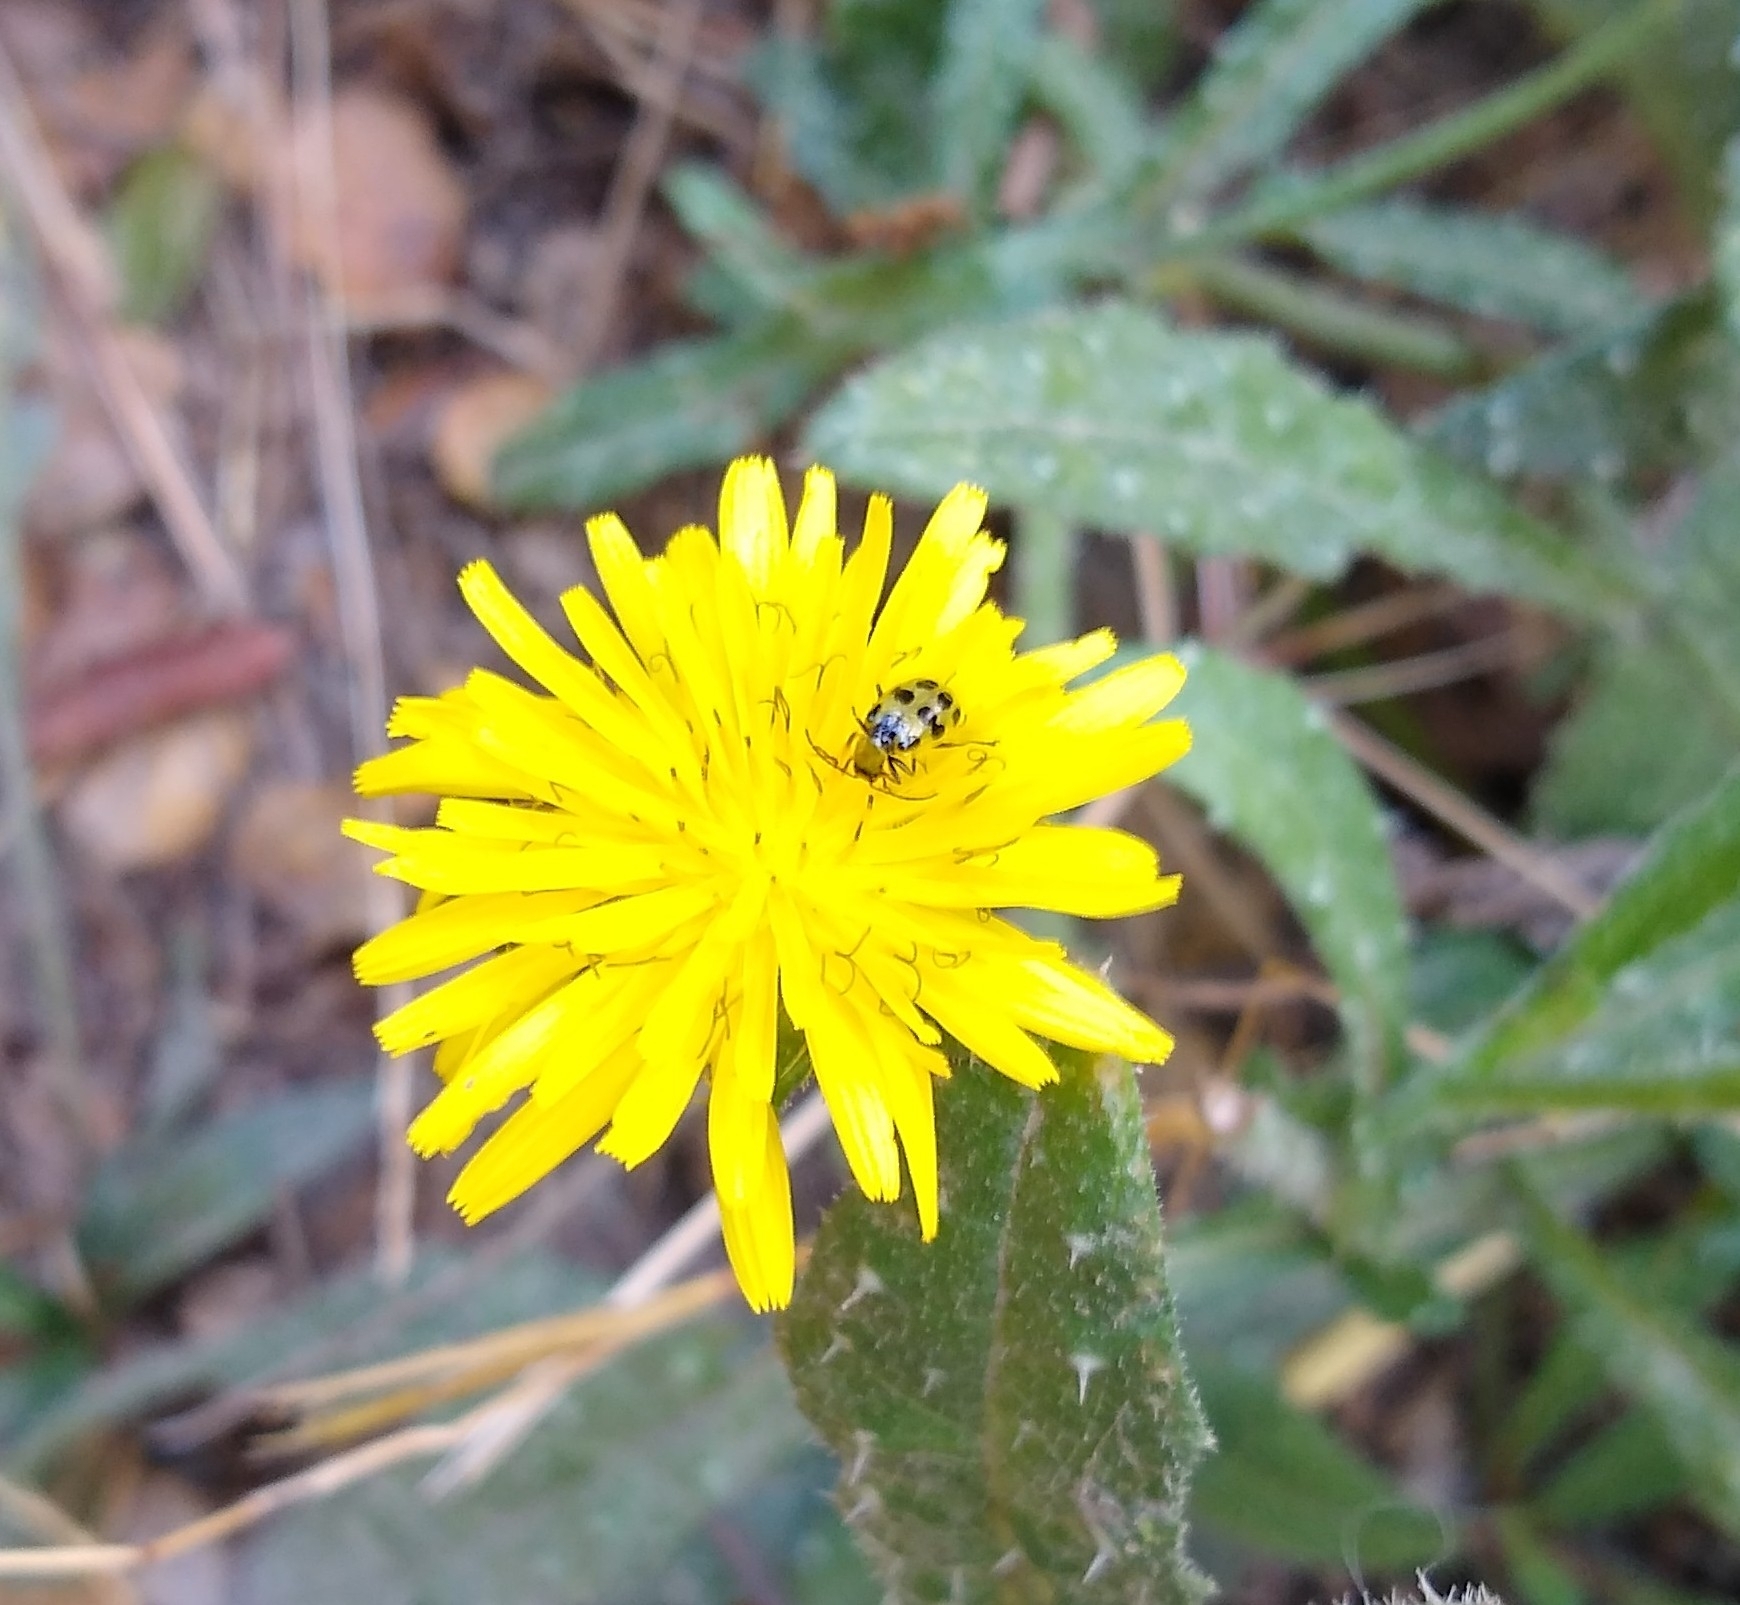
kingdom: Animalia
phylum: Arthropoda
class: Insecta
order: Coleoptera
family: Chrysomelidae
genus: Diabrotica
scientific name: Diabrotica undecimpunctata
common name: Spotted cucumber beetle
